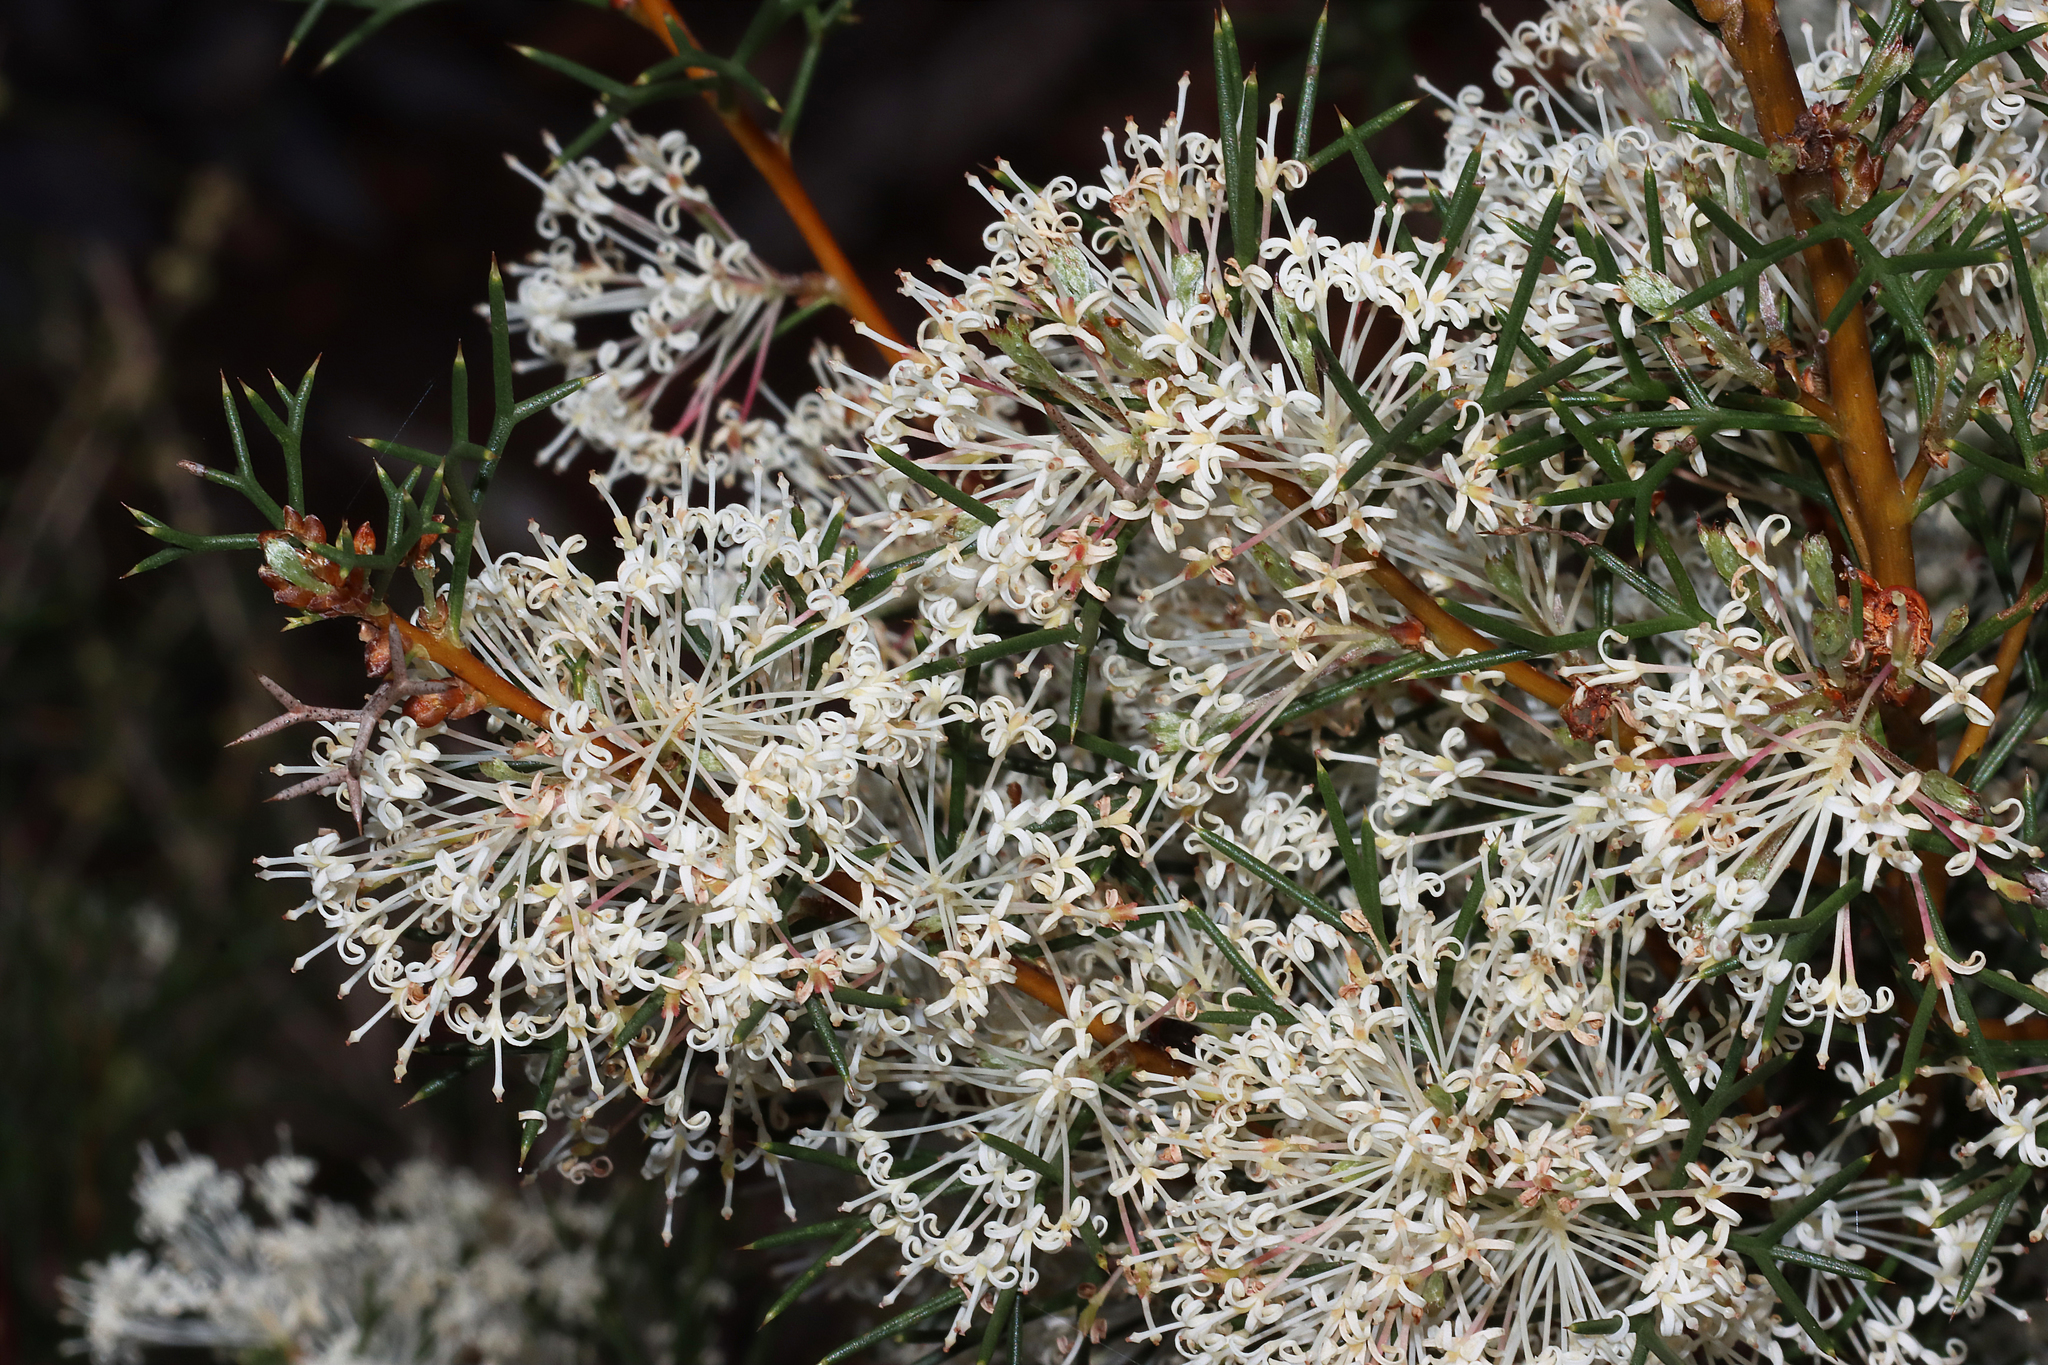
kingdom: Plantae
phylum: Tracheophyta
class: Magnoliopsida
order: Proteales
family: Proteaceae
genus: Hakea
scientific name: Hakea lissocarpha
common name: Honey bush
